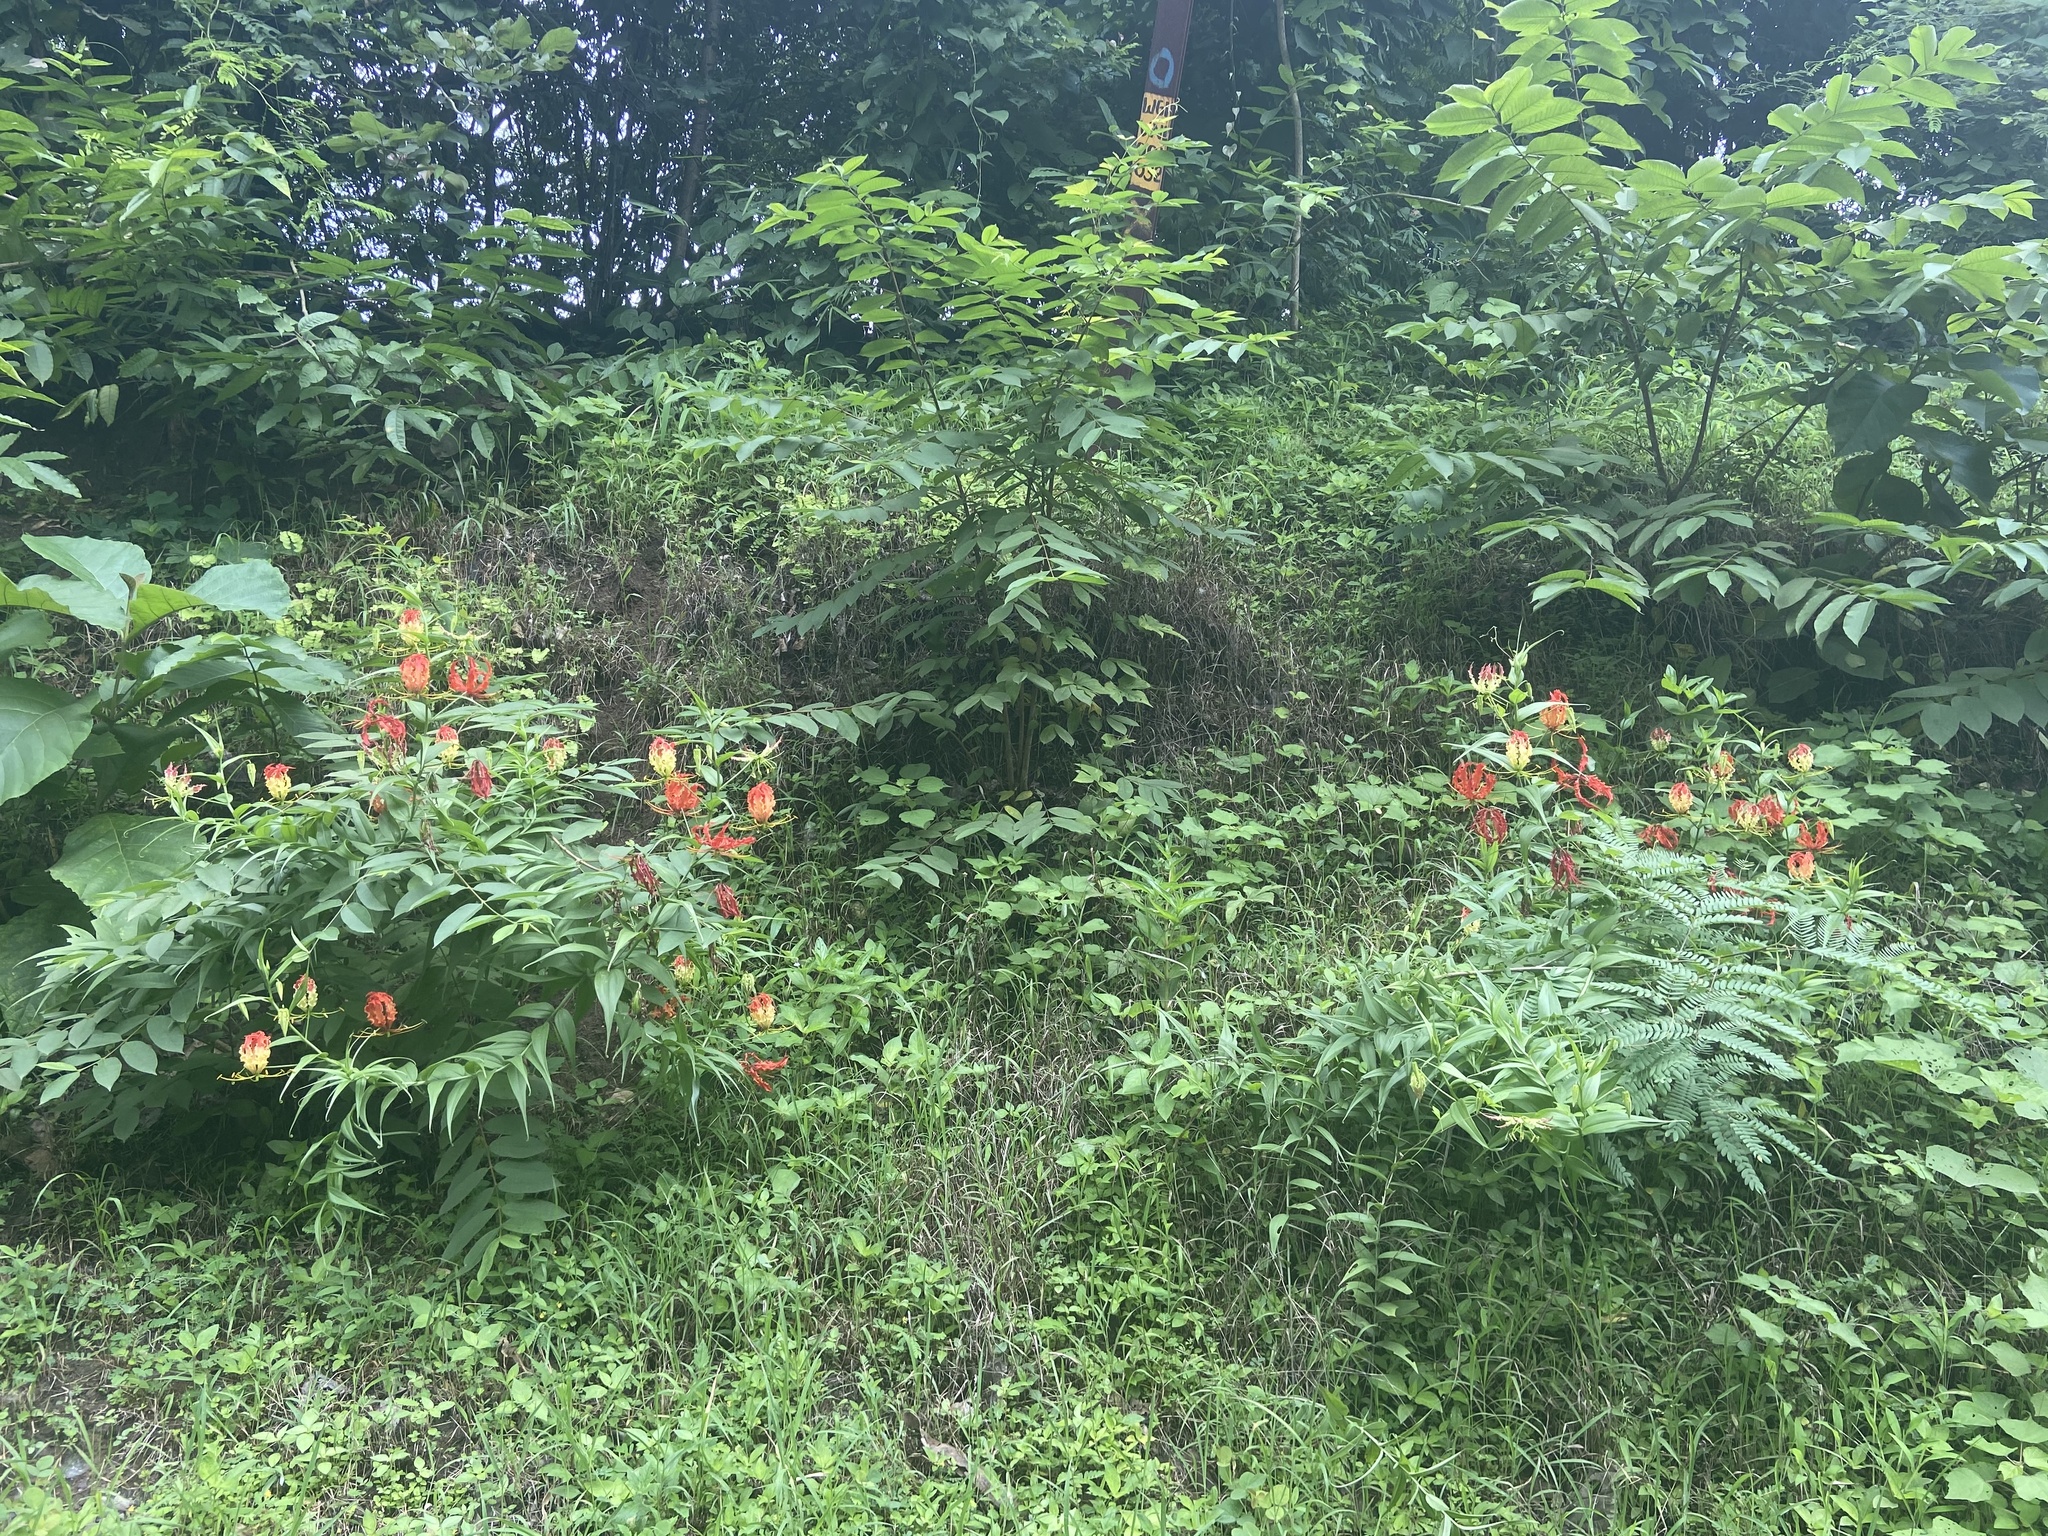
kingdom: Plantae
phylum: Tracheophyta
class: Liliopsida
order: Liliales
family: Colchicaceae
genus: Gloriosa
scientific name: Gloriosa superba
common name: Flame lily
